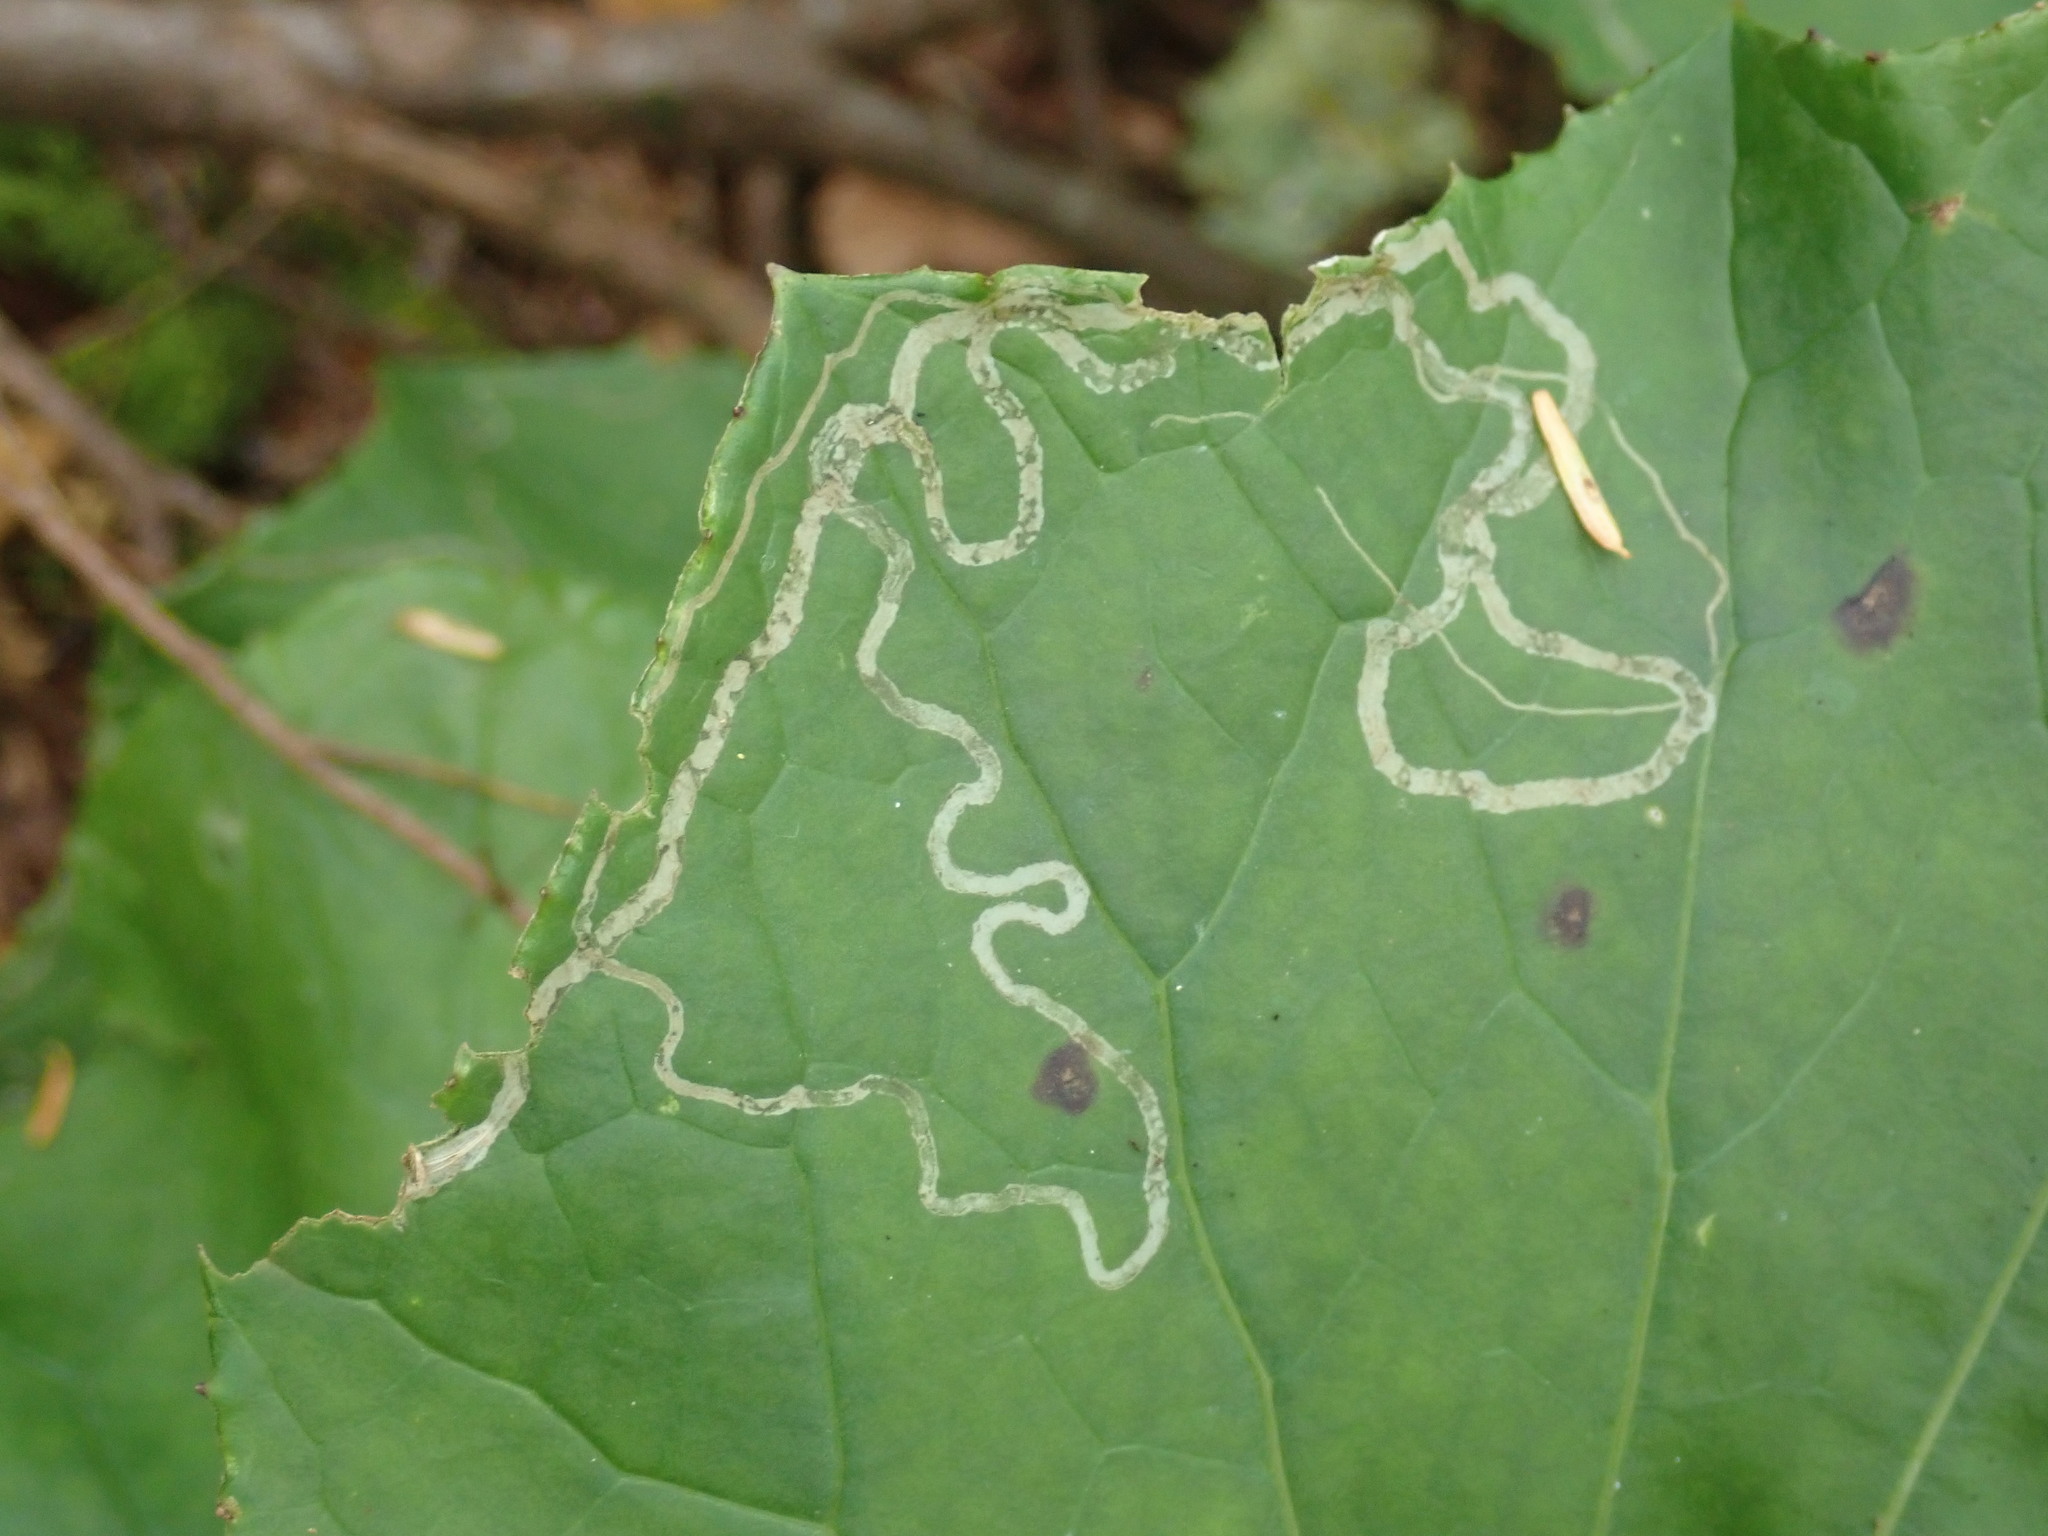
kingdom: Animalia
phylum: Arthropoda
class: Insecta
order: Lepidoptera
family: Gracillariidae
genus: Phyllocnistis
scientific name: Phyllocnistis insignis
